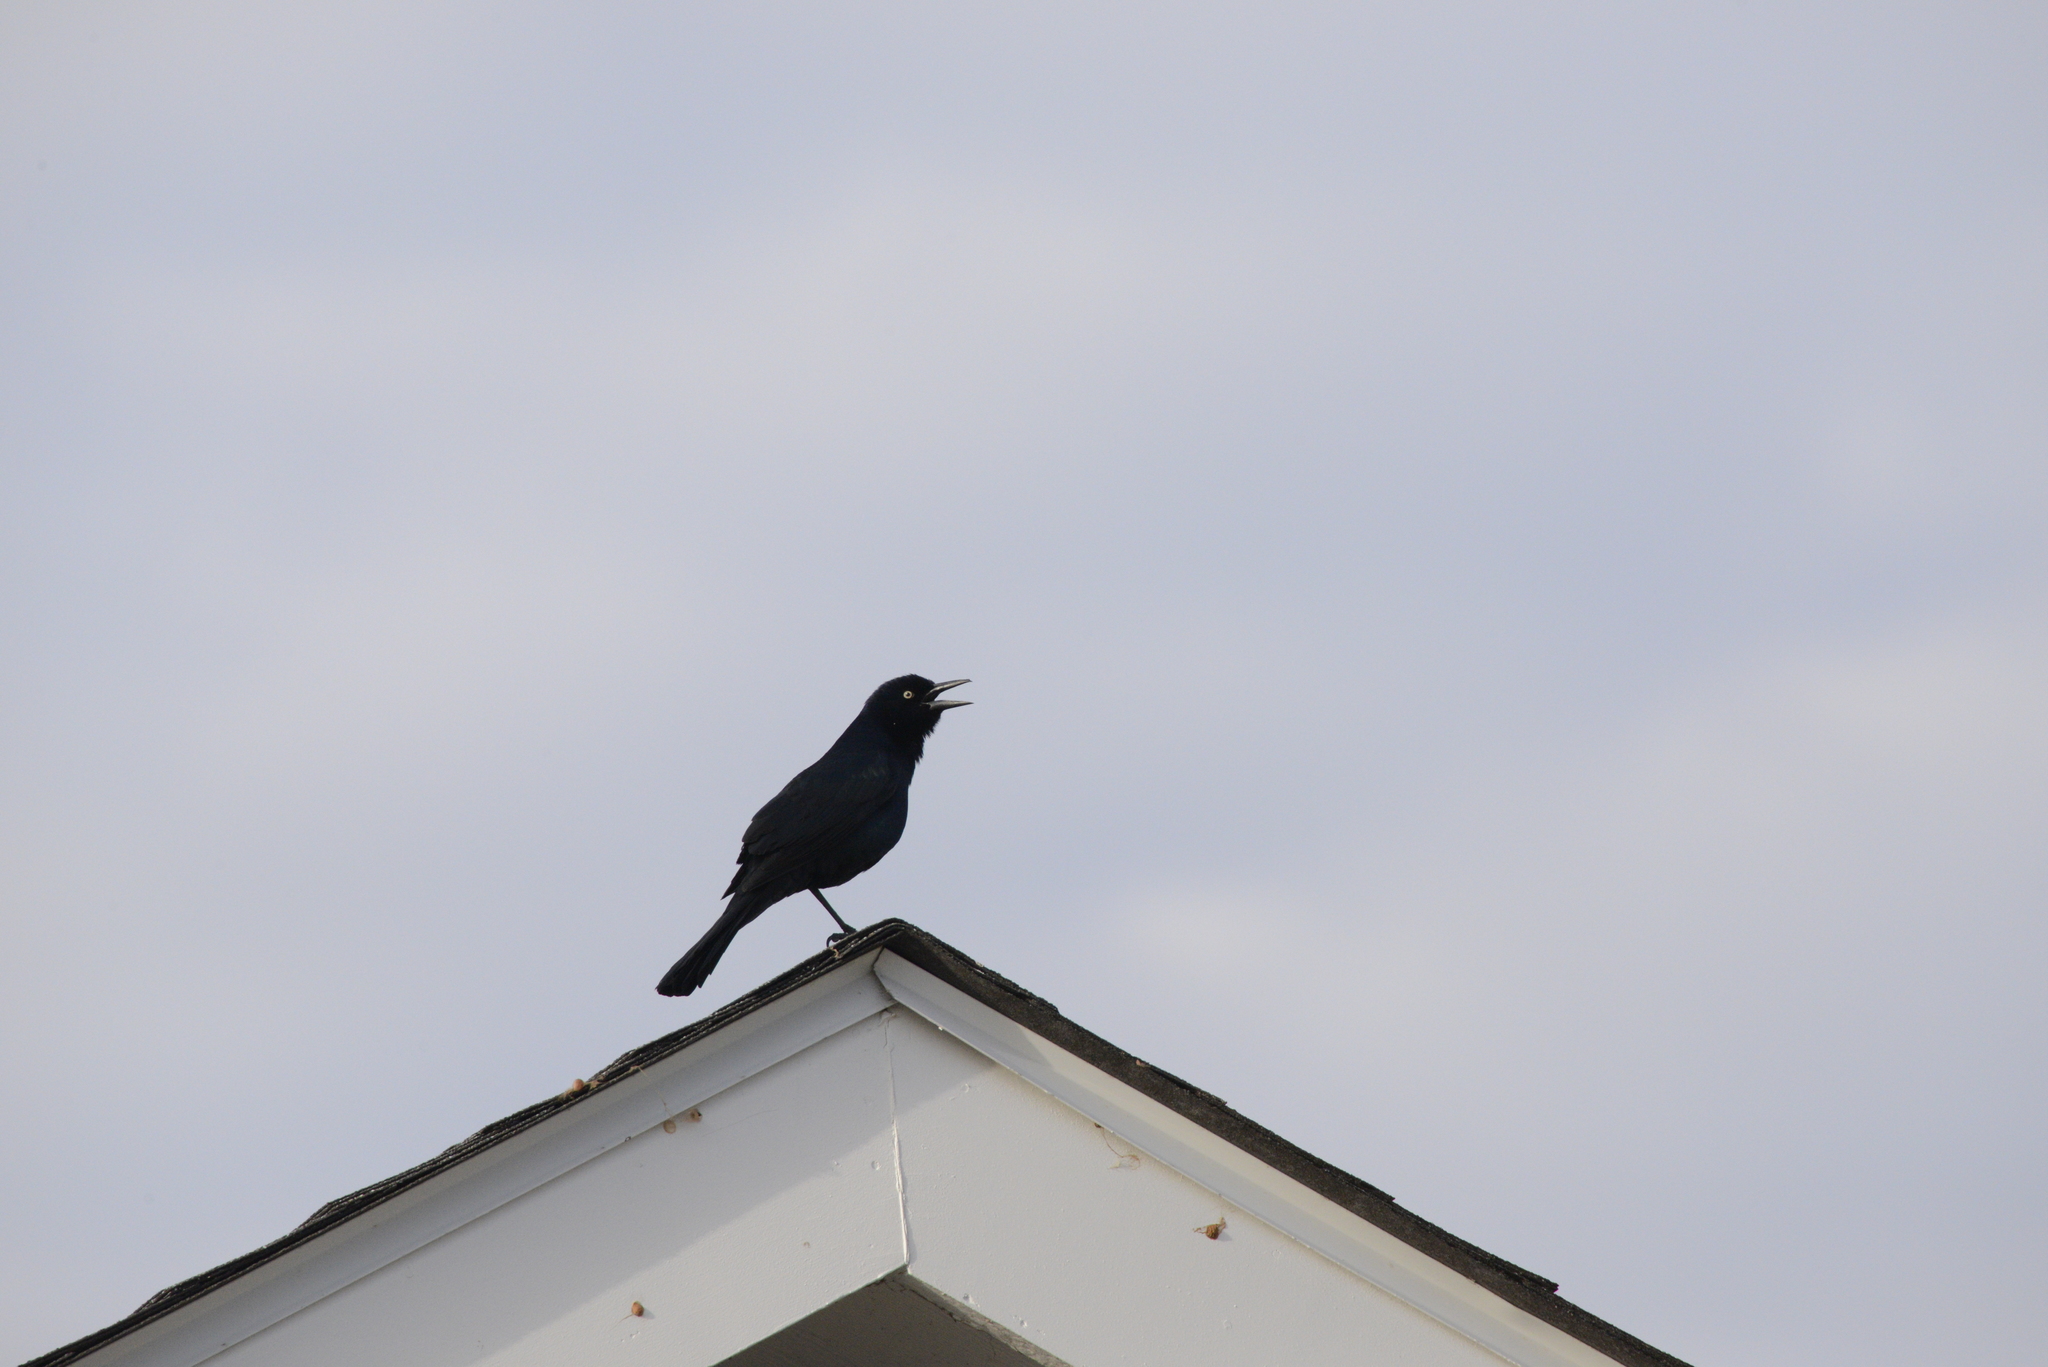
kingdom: Animalia
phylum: Chordata
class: Aves
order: Passeriformes
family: Icteridae
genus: Quiscalus
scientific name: Quiscalus major
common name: Boat-tailed grackle
